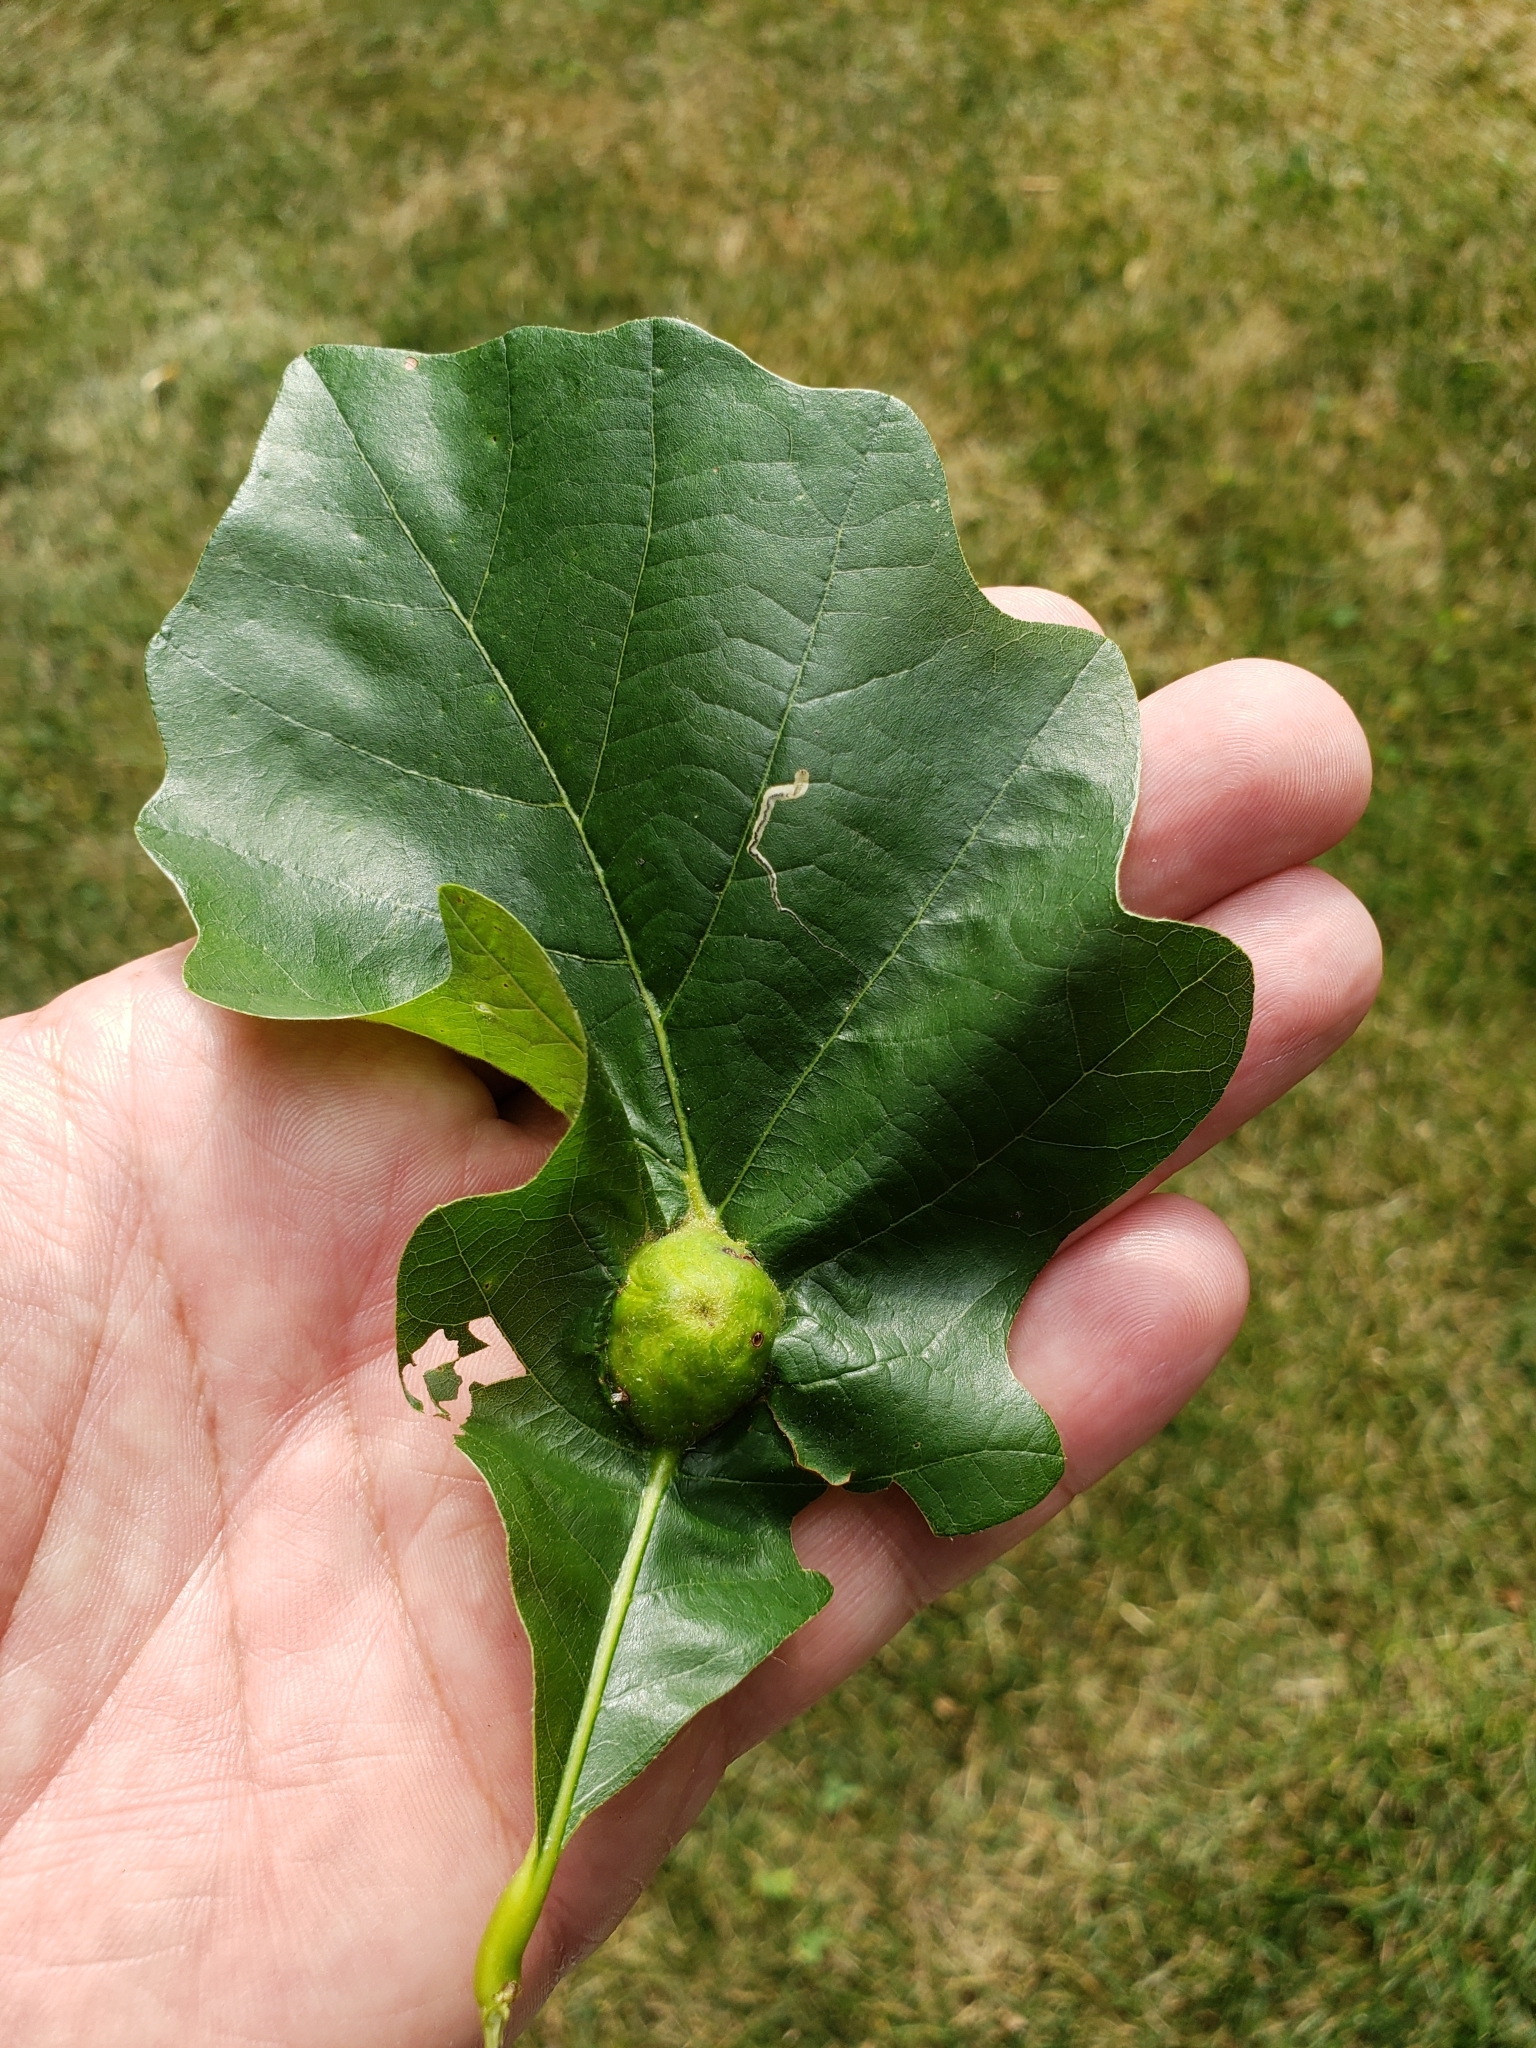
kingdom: Animalia
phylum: Arthropoda
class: Insecta
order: Hymenoptera
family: Cynipidae
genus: Andricus
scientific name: Andricus
